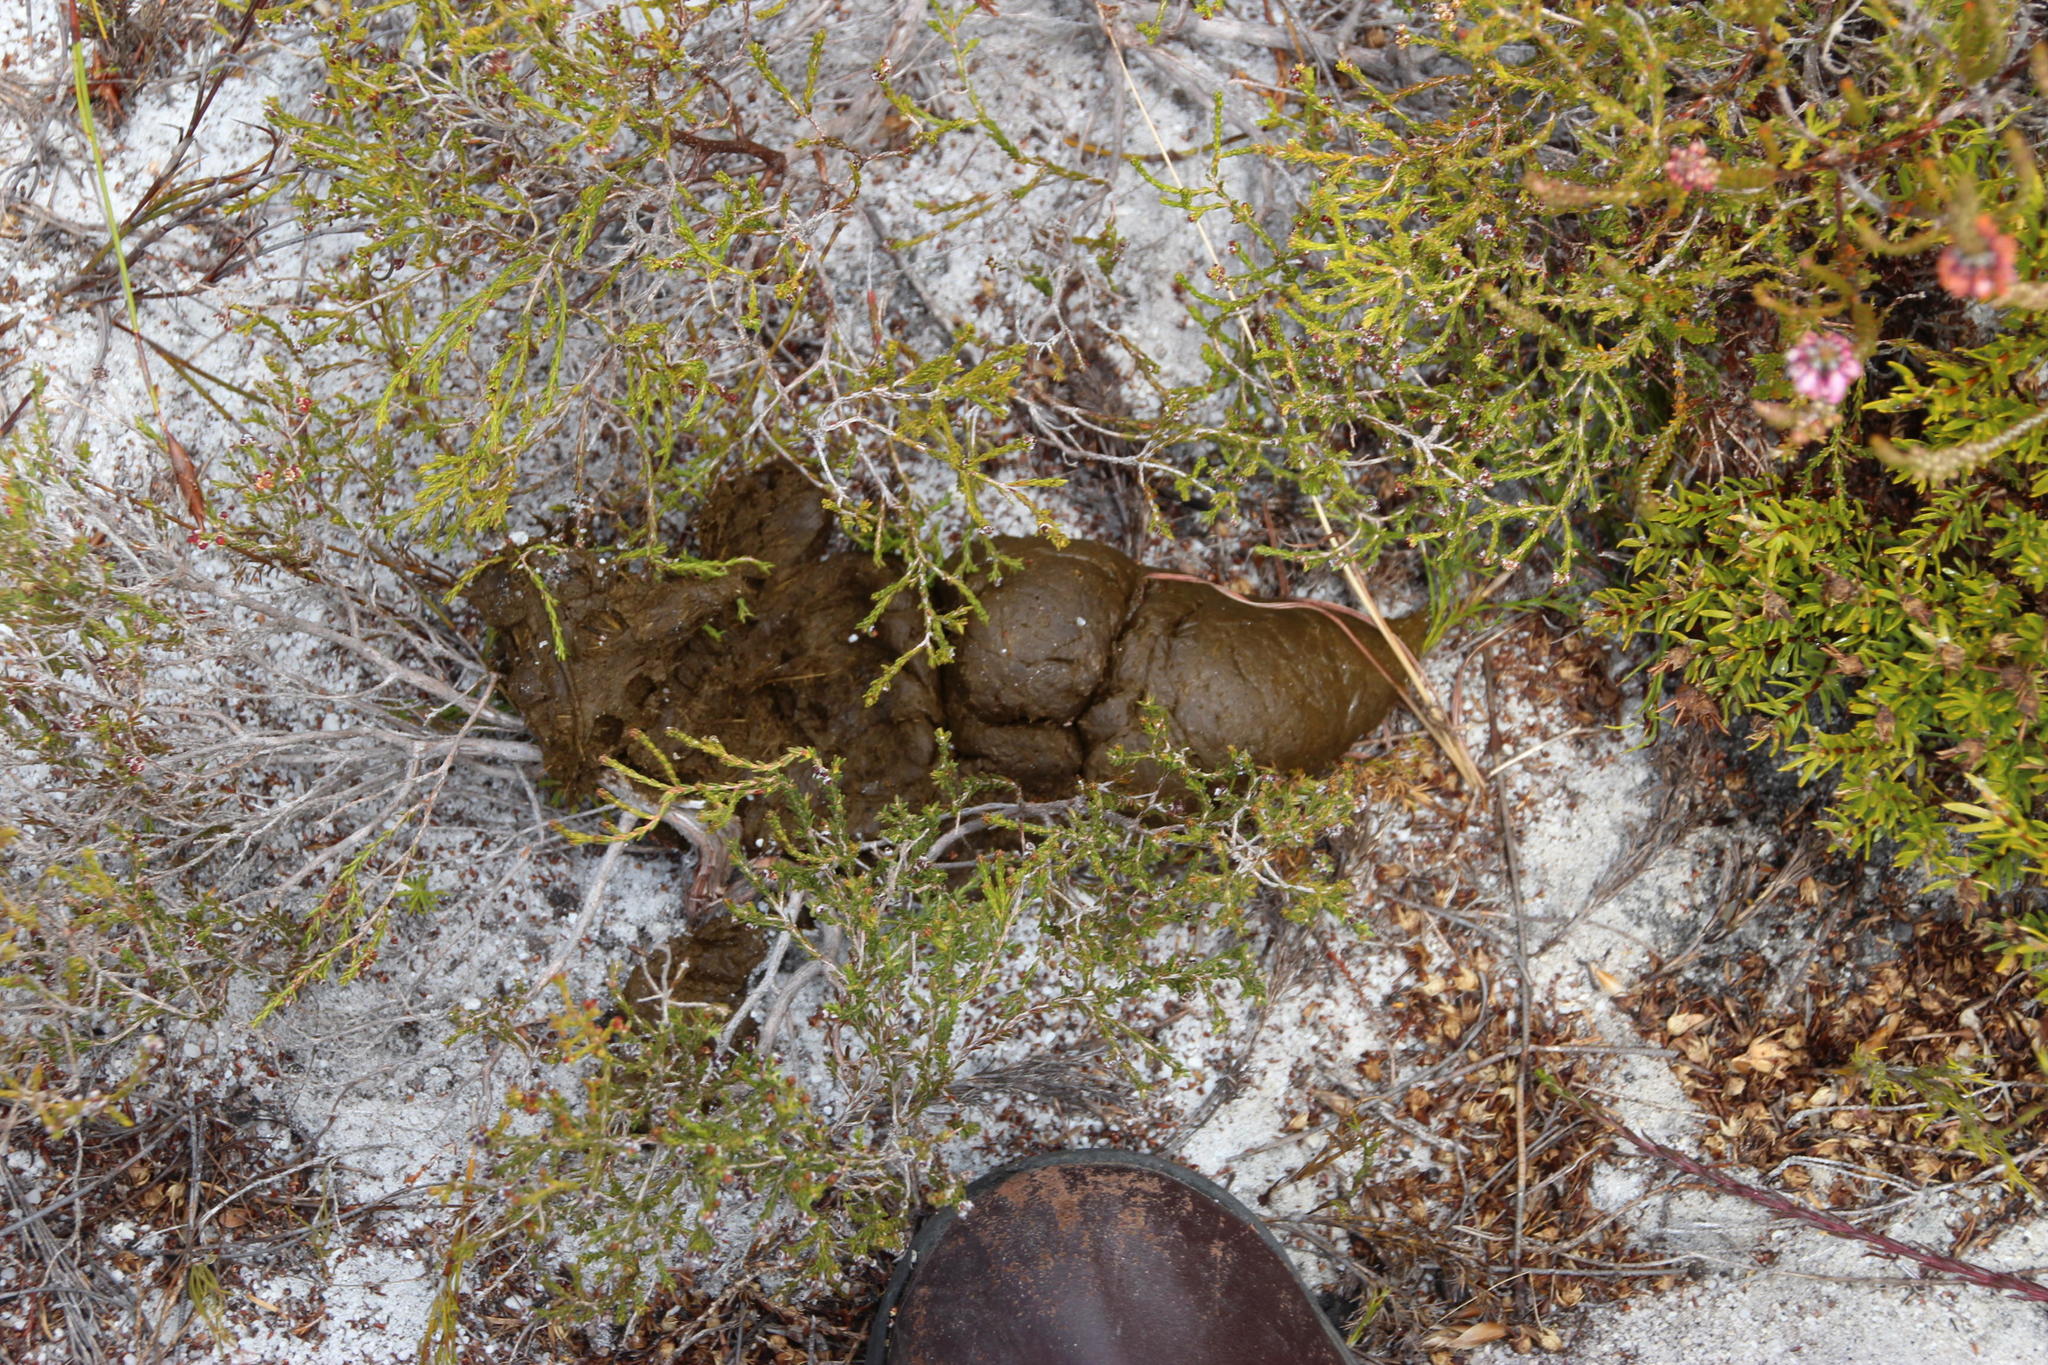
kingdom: Animalia
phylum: Chordata
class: Mammalia
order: Primates
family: Cercopithecidae
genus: Papio
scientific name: Papio ursinus
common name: Chacma baboon
